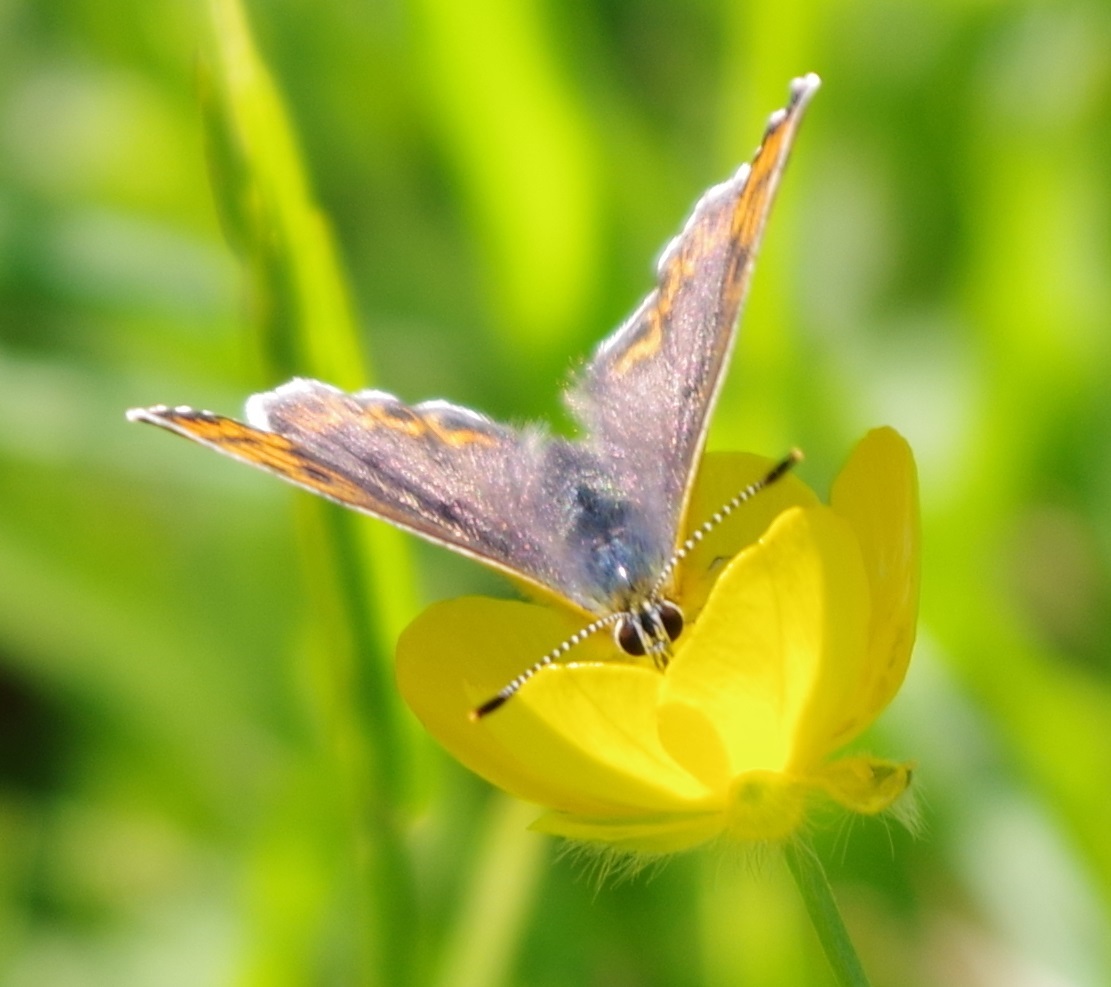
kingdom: Animalia
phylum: Arthropoda
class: Insecta
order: Lepidoptera
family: Lycaenidae
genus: Loweia
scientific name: Loweia tityrus
